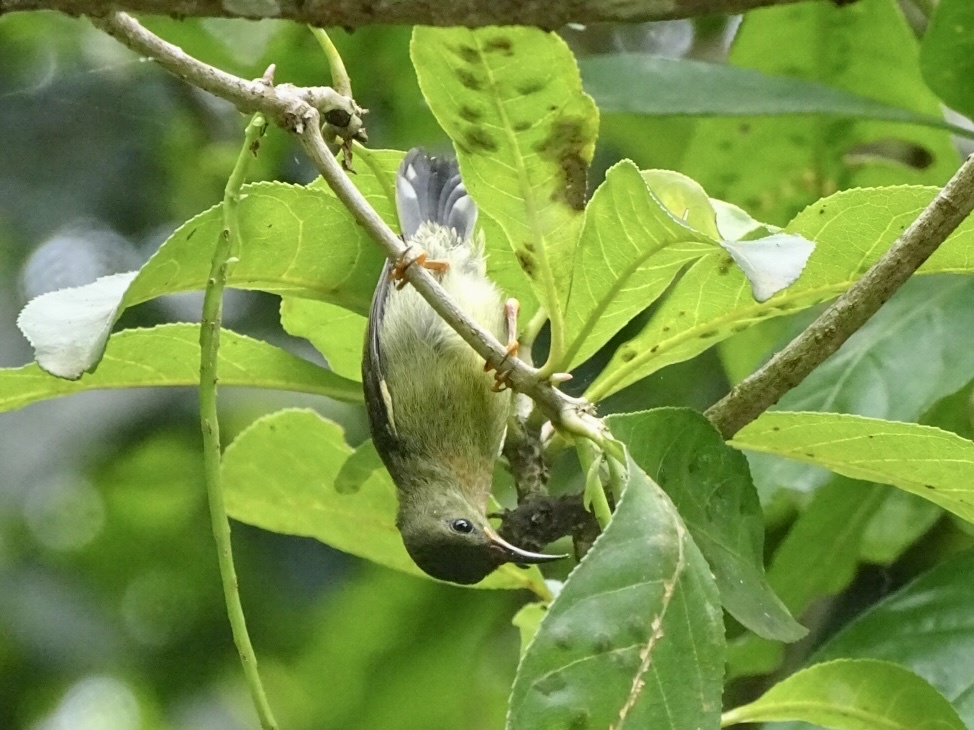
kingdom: Animalia
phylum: Chordata
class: Aves
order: Passeriformes
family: Nectariniidae
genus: Aethopyga
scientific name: Aethopyga siparaja
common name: Crimson sunbird
